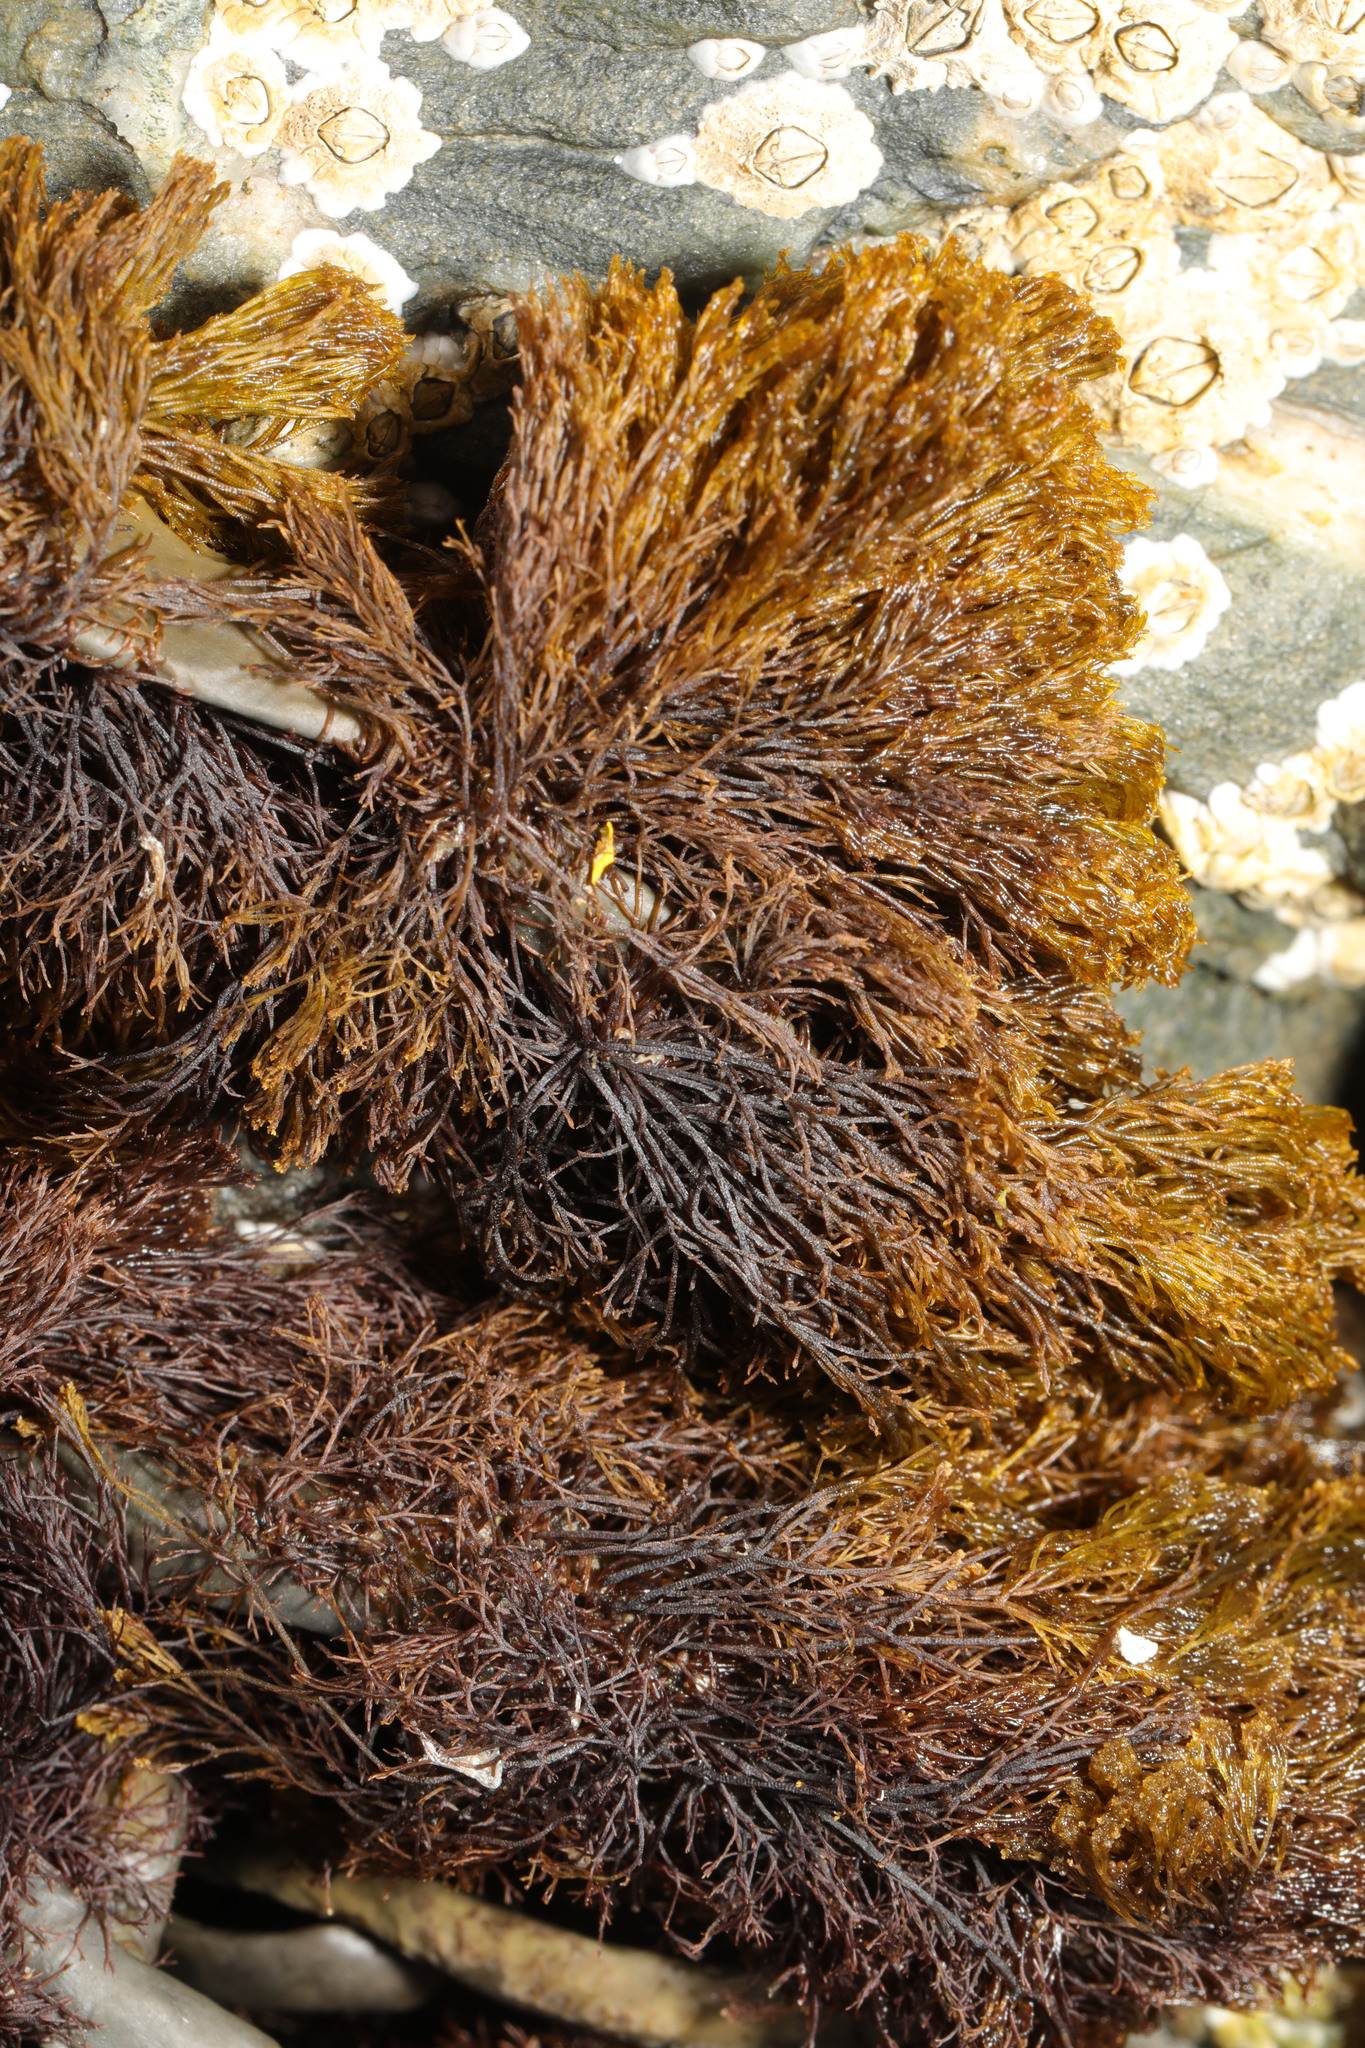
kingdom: Plantae
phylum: Rhodophyta
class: Florideophyceae
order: Ceramiales
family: Rhodomelaceae
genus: Vertebrata
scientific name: Vertebrata lanosa
